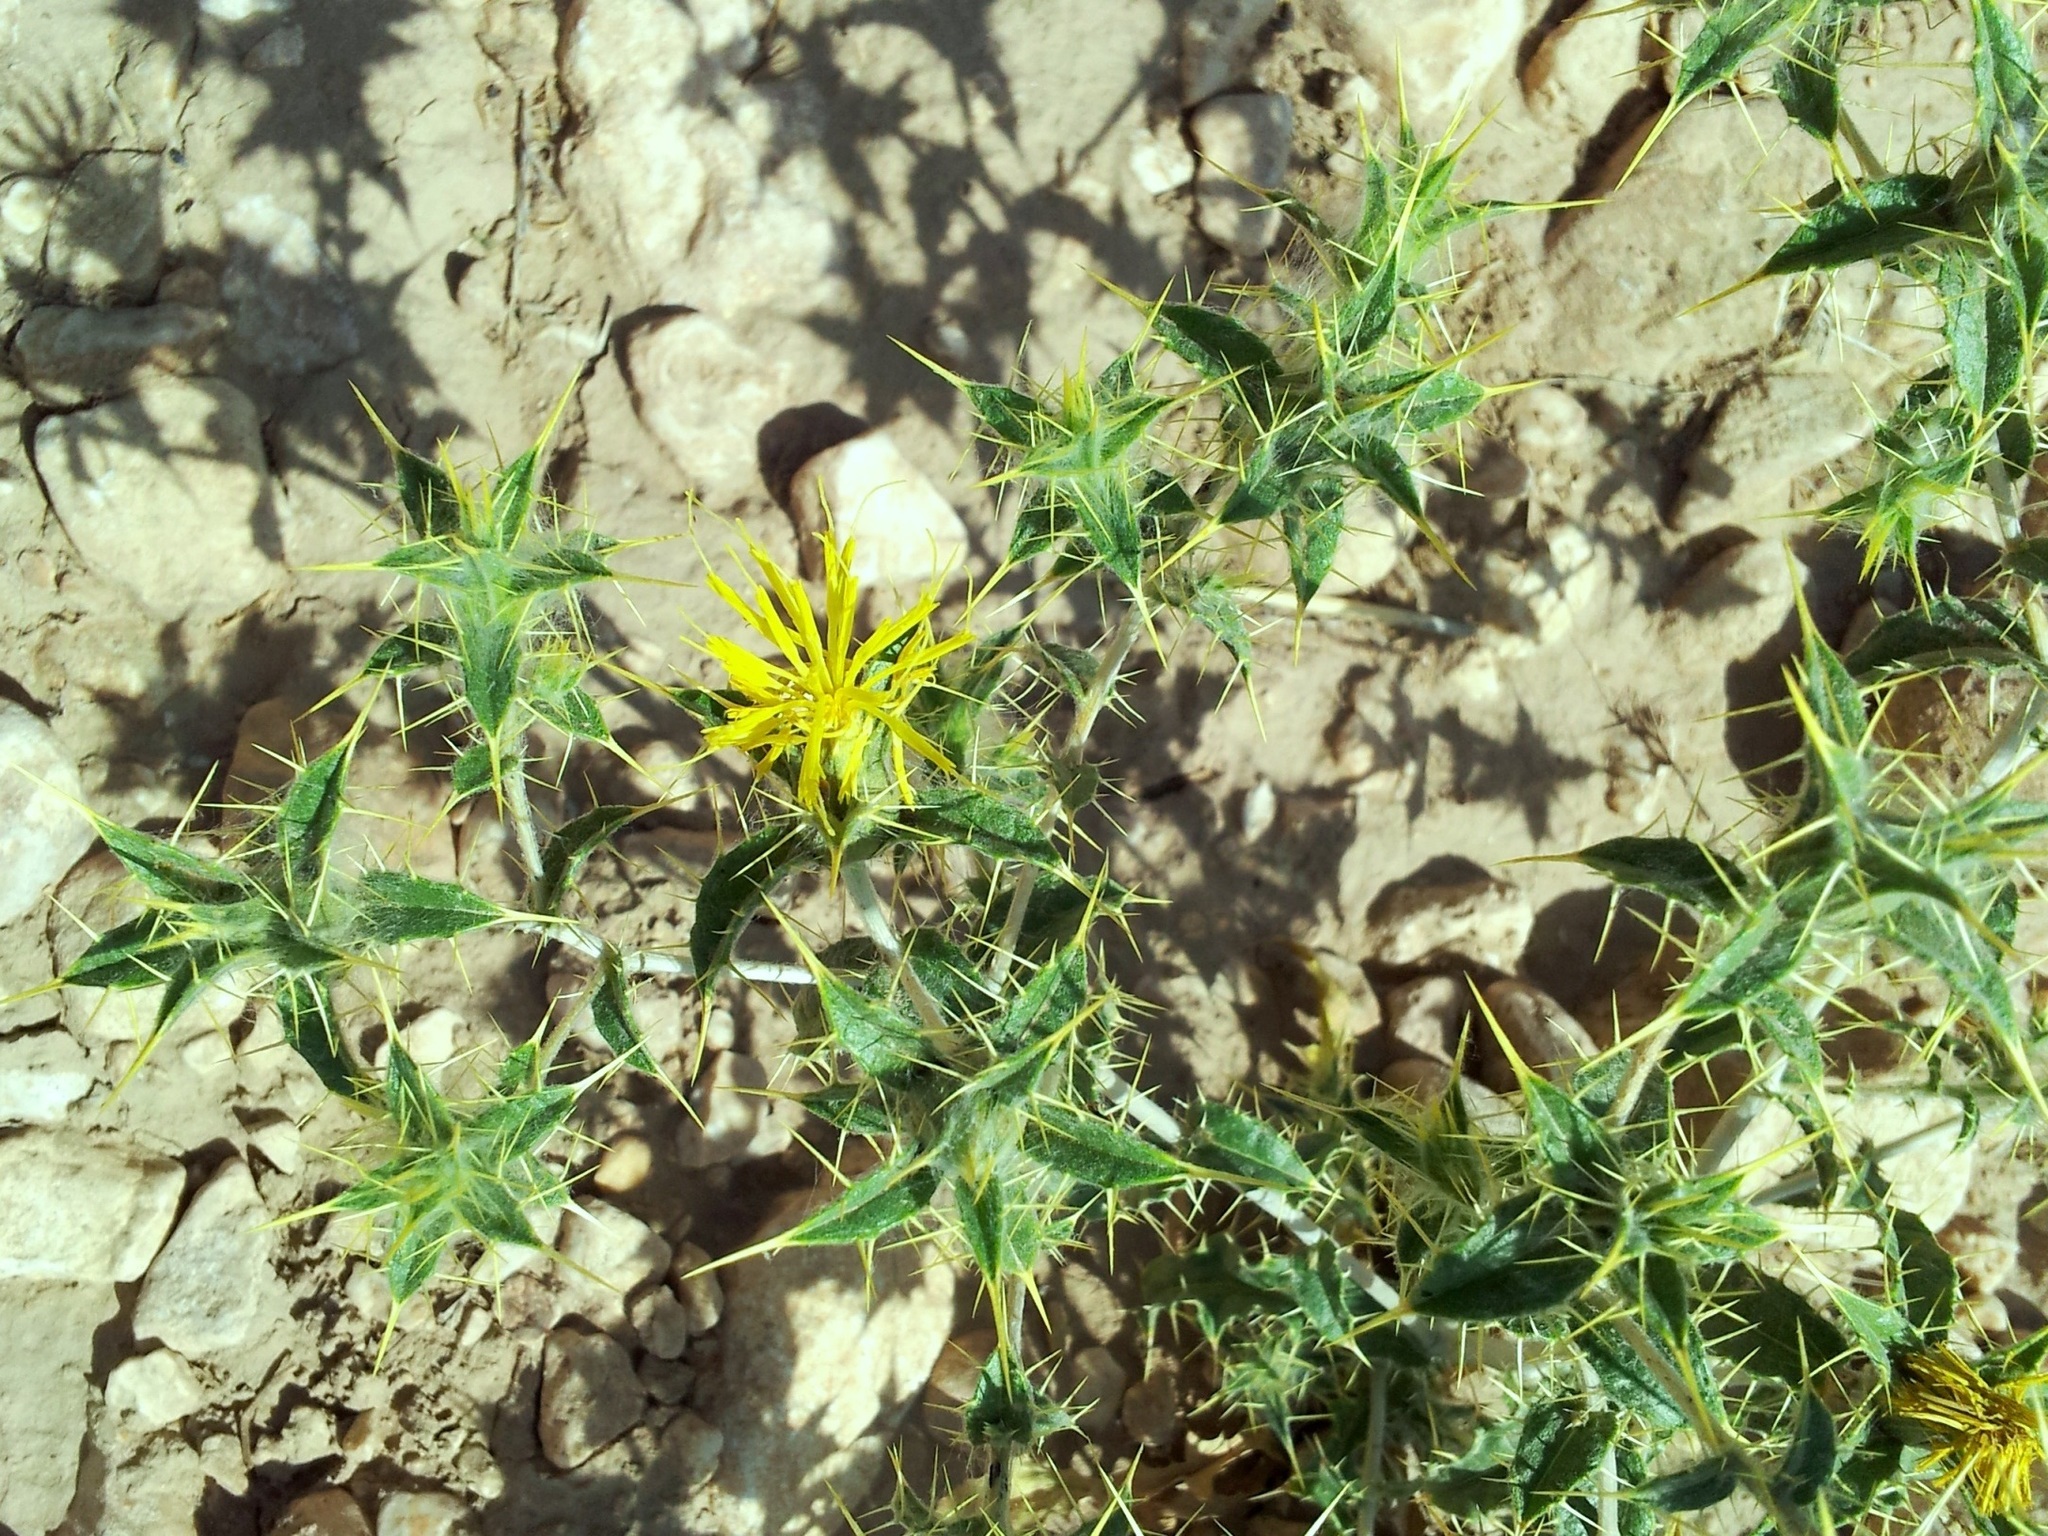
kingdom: Plantae
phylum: Tracheophyta
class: Magnoliopsida
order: Asterales
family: Asteraceae
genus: Carthamus
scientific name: Carthamus oxyacanthus
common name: Wild safflower
